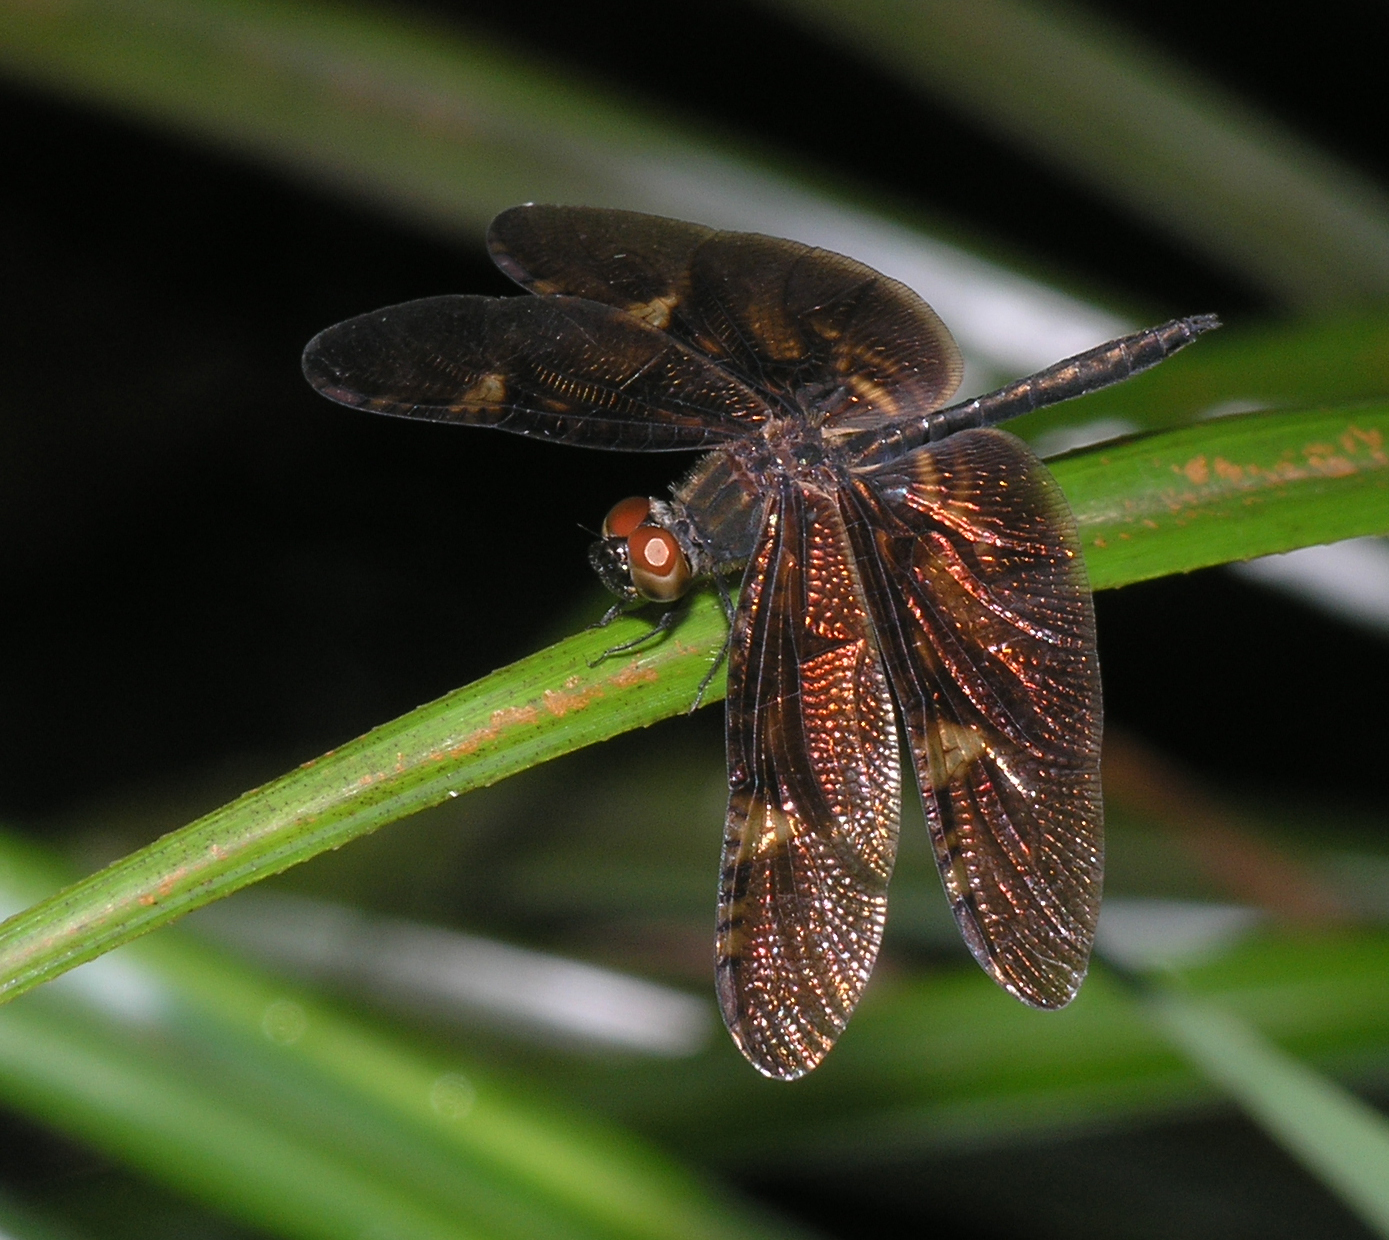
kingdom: Animalia
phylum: Arthropoda
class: Insecta
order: Odonata
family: Libellulidae
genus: Rhyothemis
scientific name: Rhyothemis obsolescens
